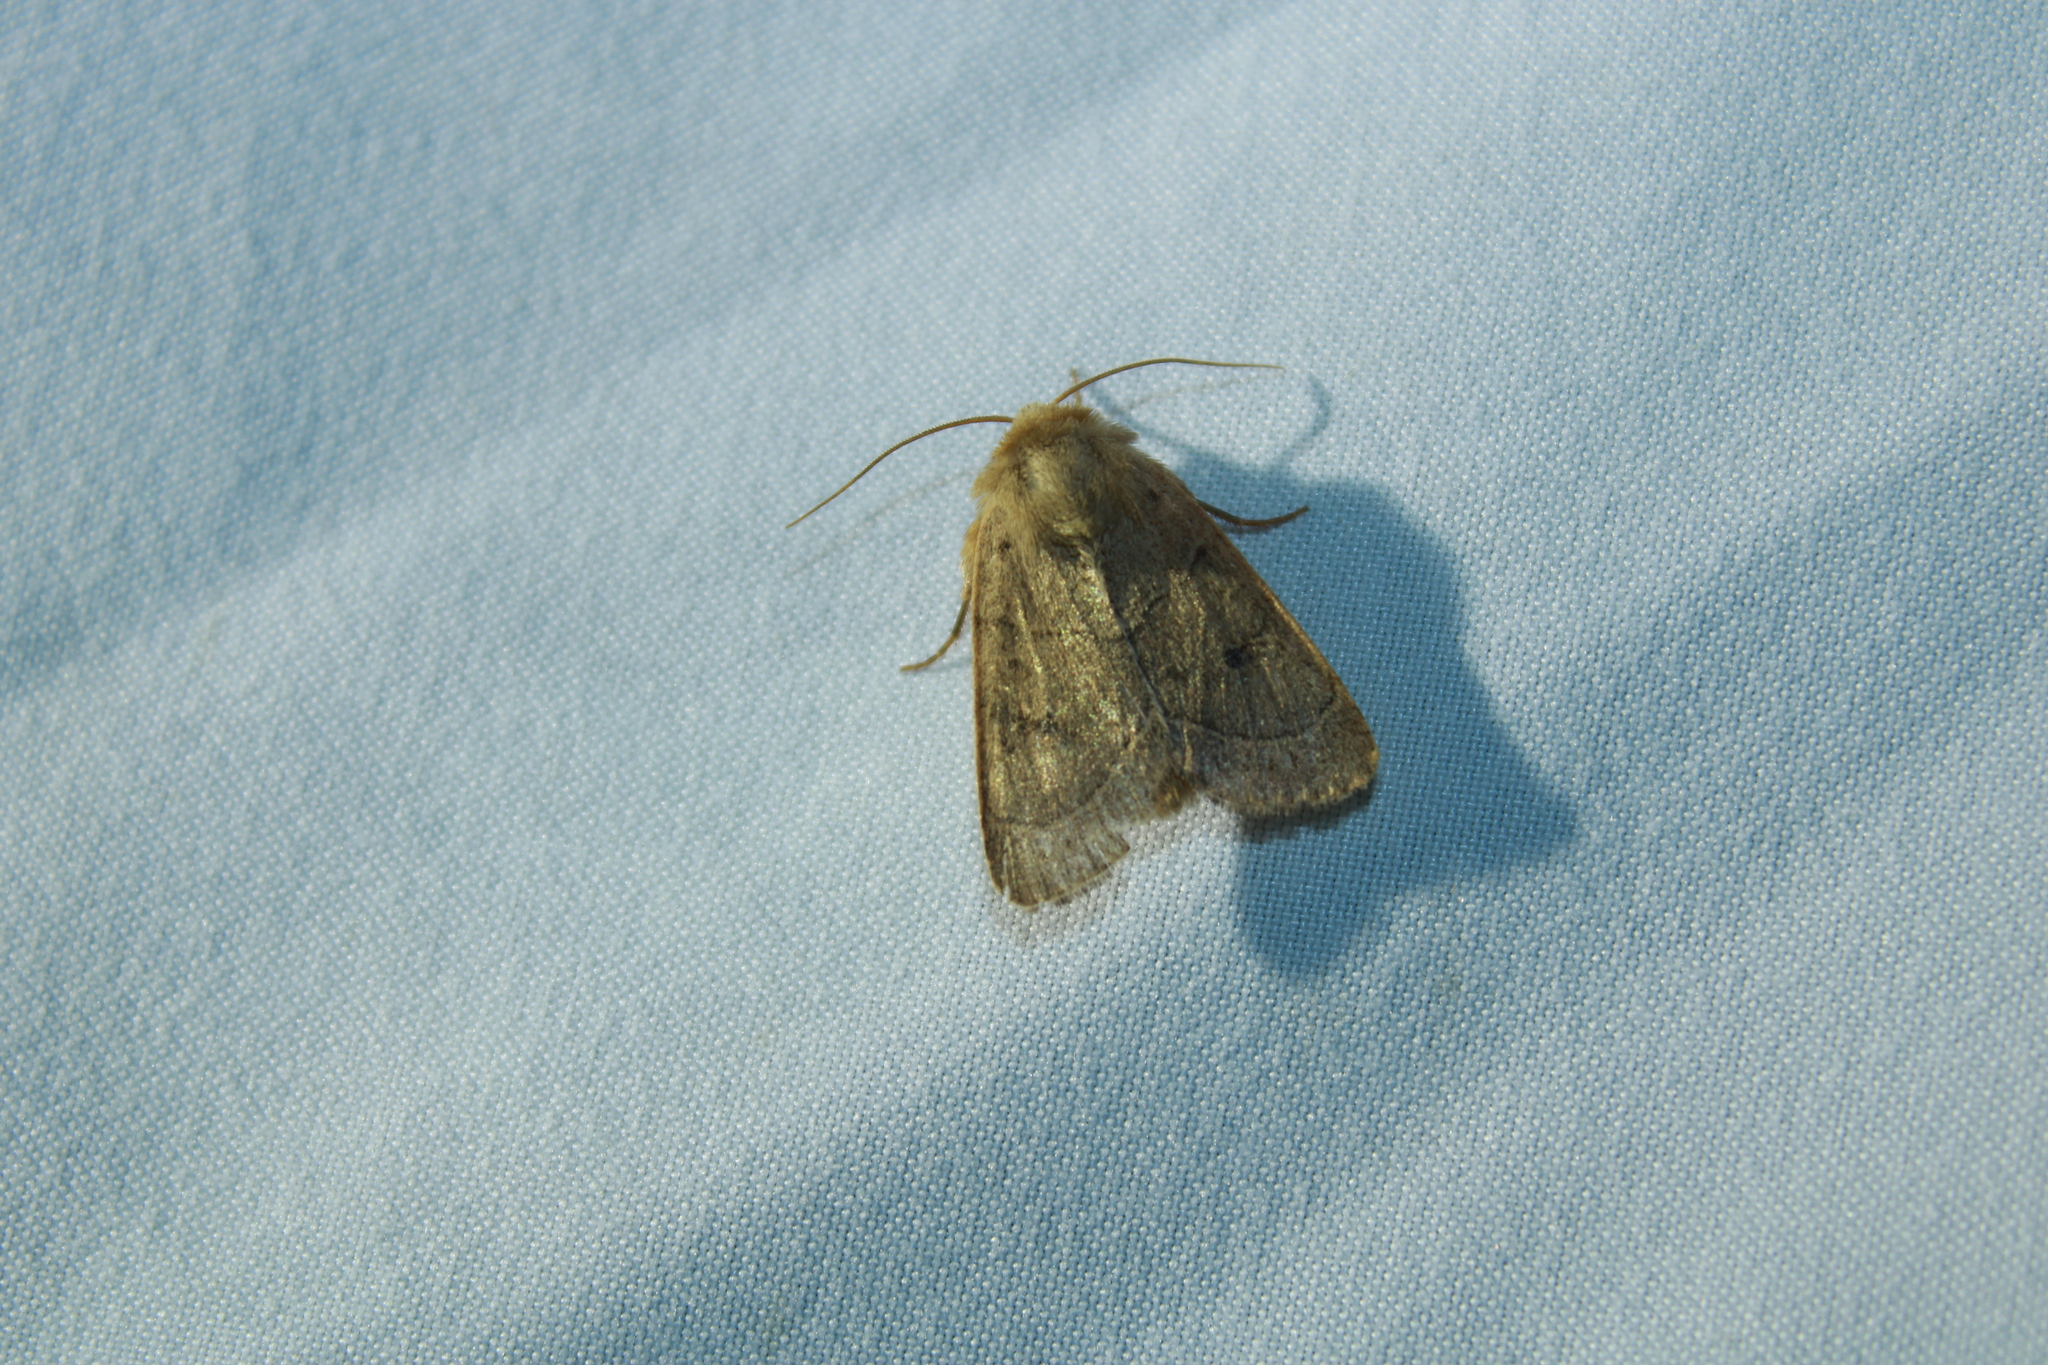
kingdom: Animalia
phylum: Arthropoda
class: Insecta
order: Lepidoptera
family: Noctuidae
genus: Ulolonche
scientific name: Ulolonche culea
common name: Sheathed quaker
